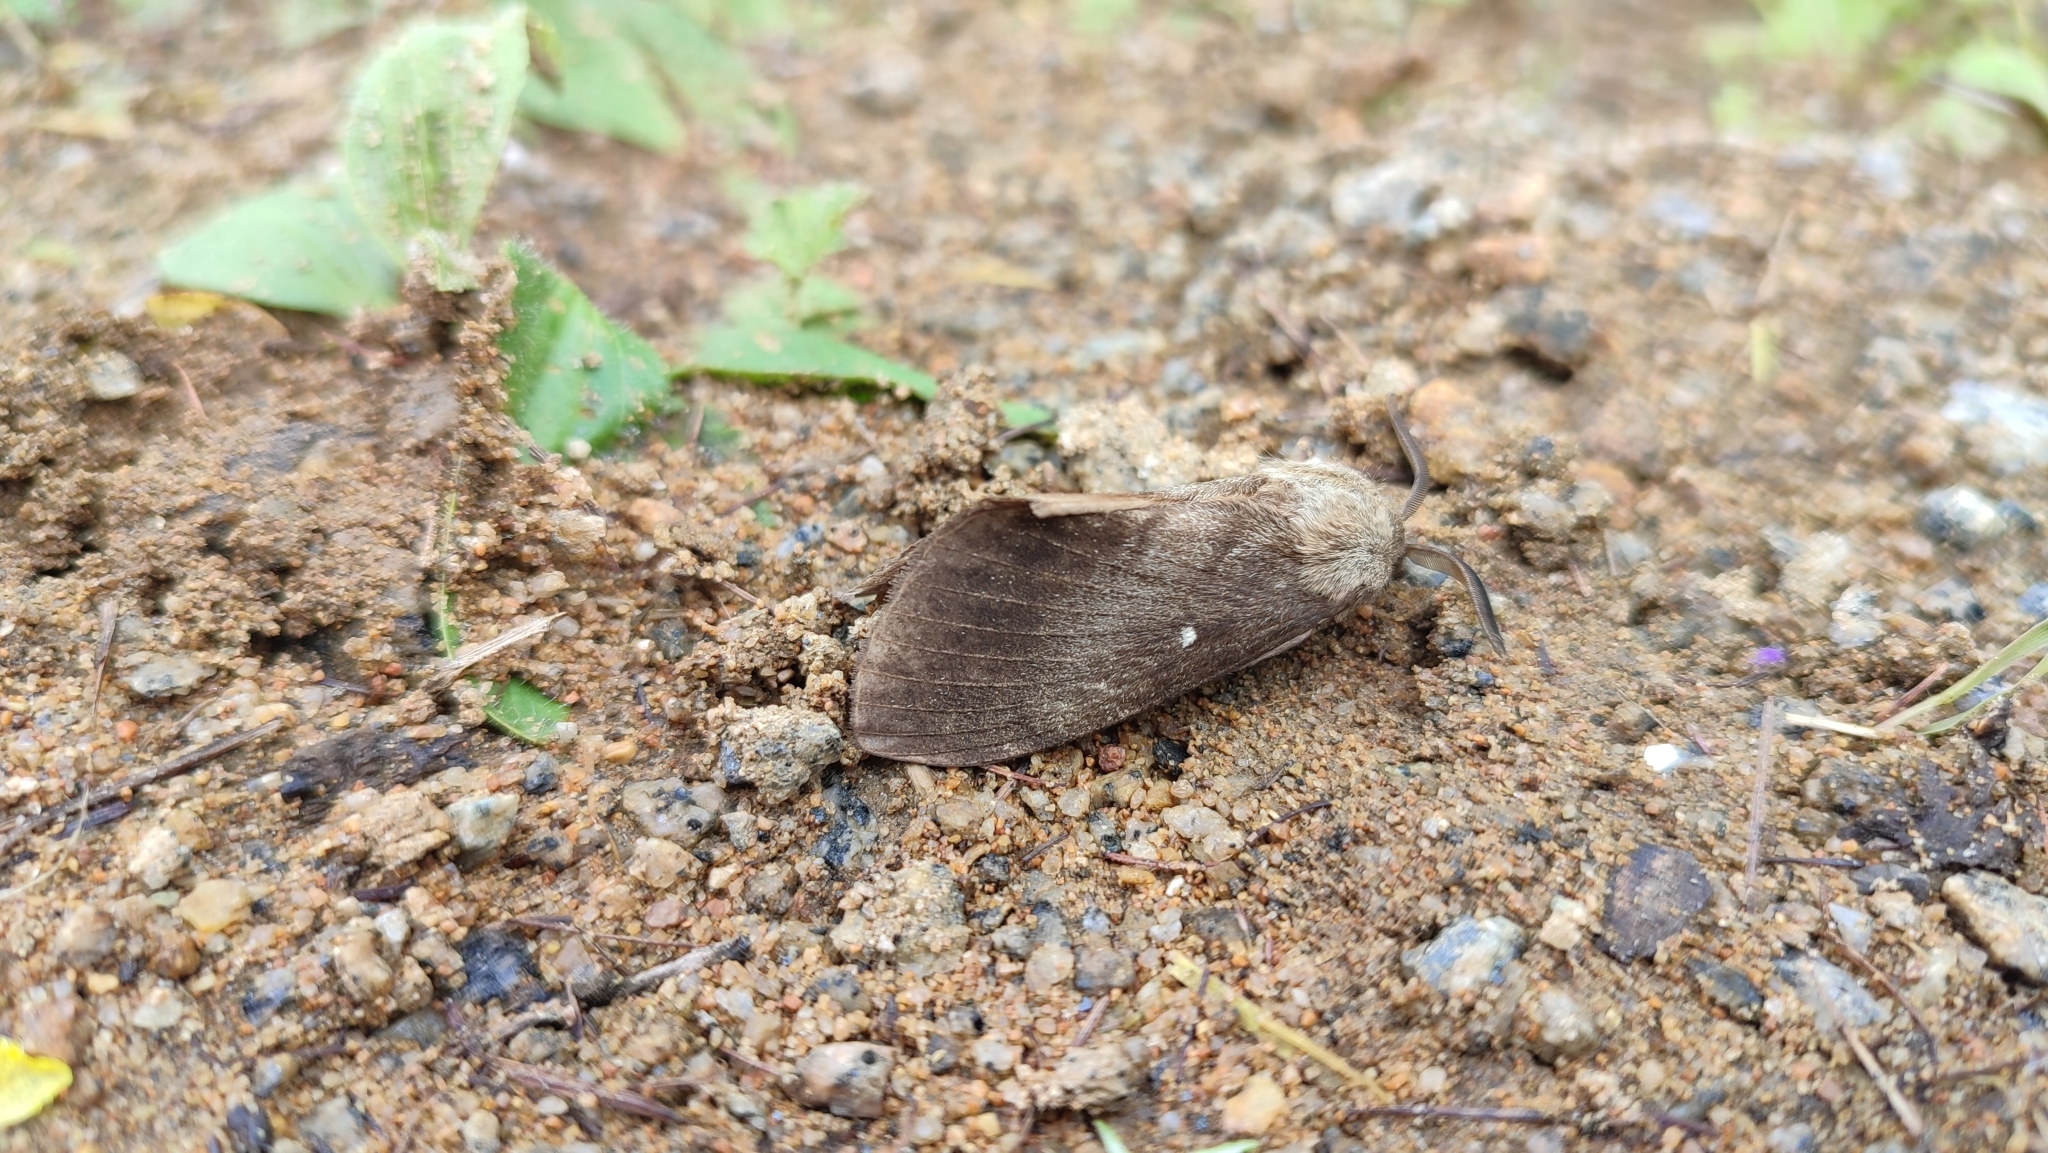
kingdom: Animalia
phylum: Arthropoda
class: Insecta
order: Lepidoptera
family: Lasiocampidae
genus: Dendrolimus
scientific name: Dendrolimus superans
